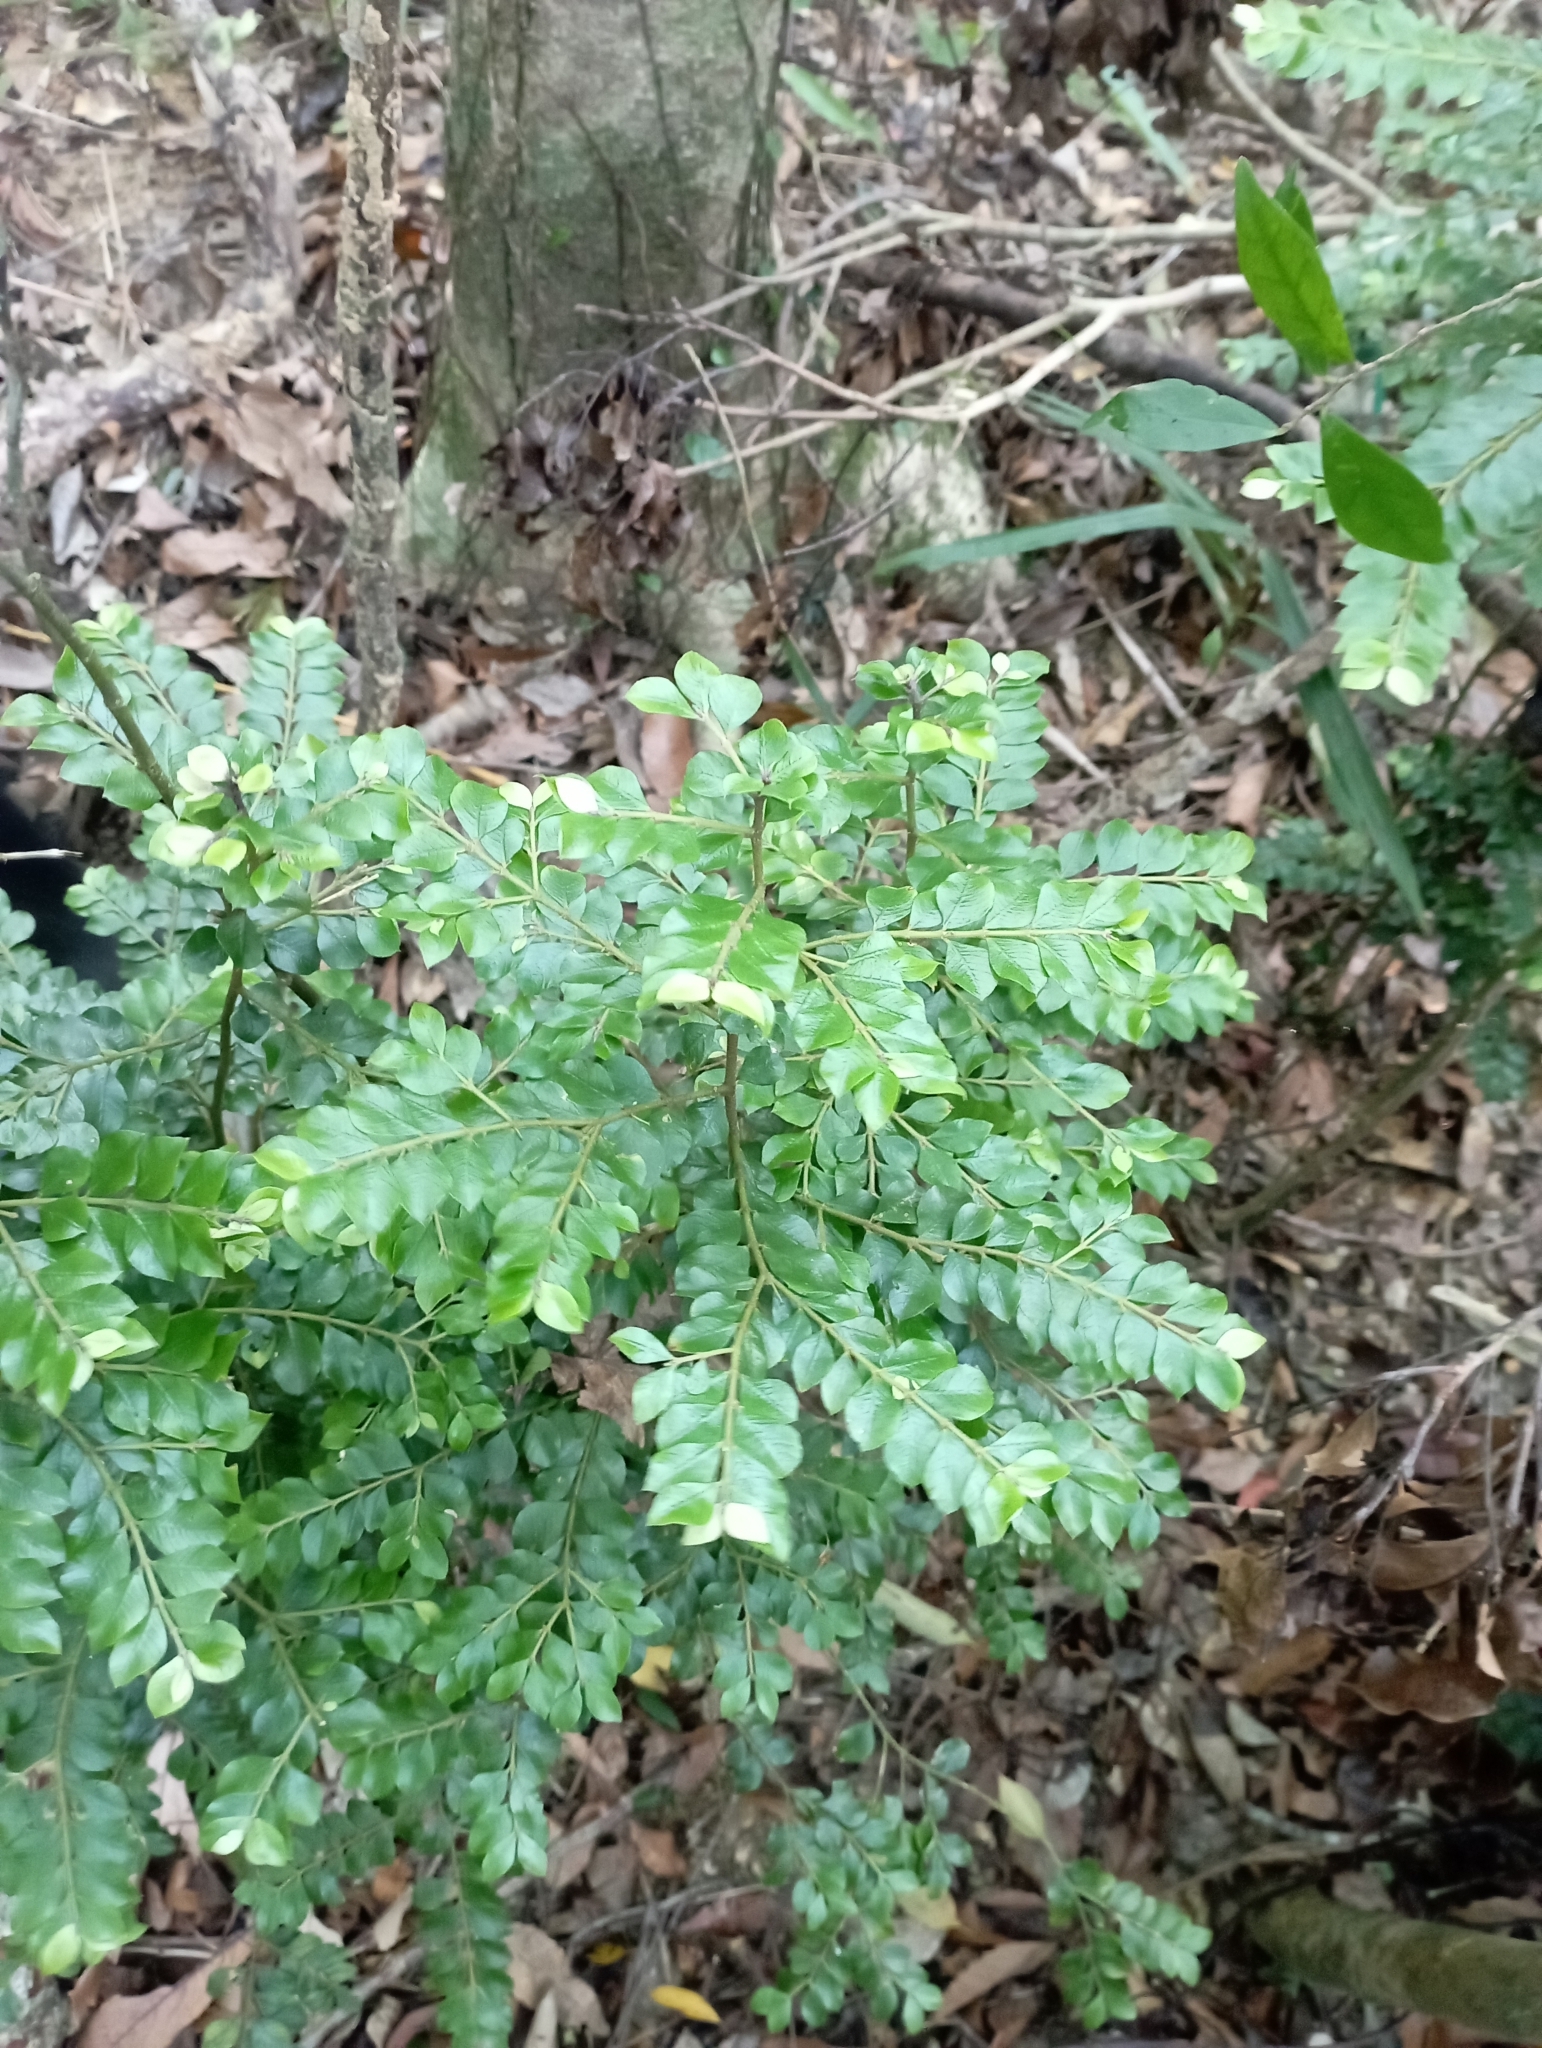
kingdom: Plantae
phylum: Tracheophyta
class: Magnoliopsida
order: Gentianales
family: Rubiaceae
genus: Lasianthus
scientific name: Lasianthus biflorus
